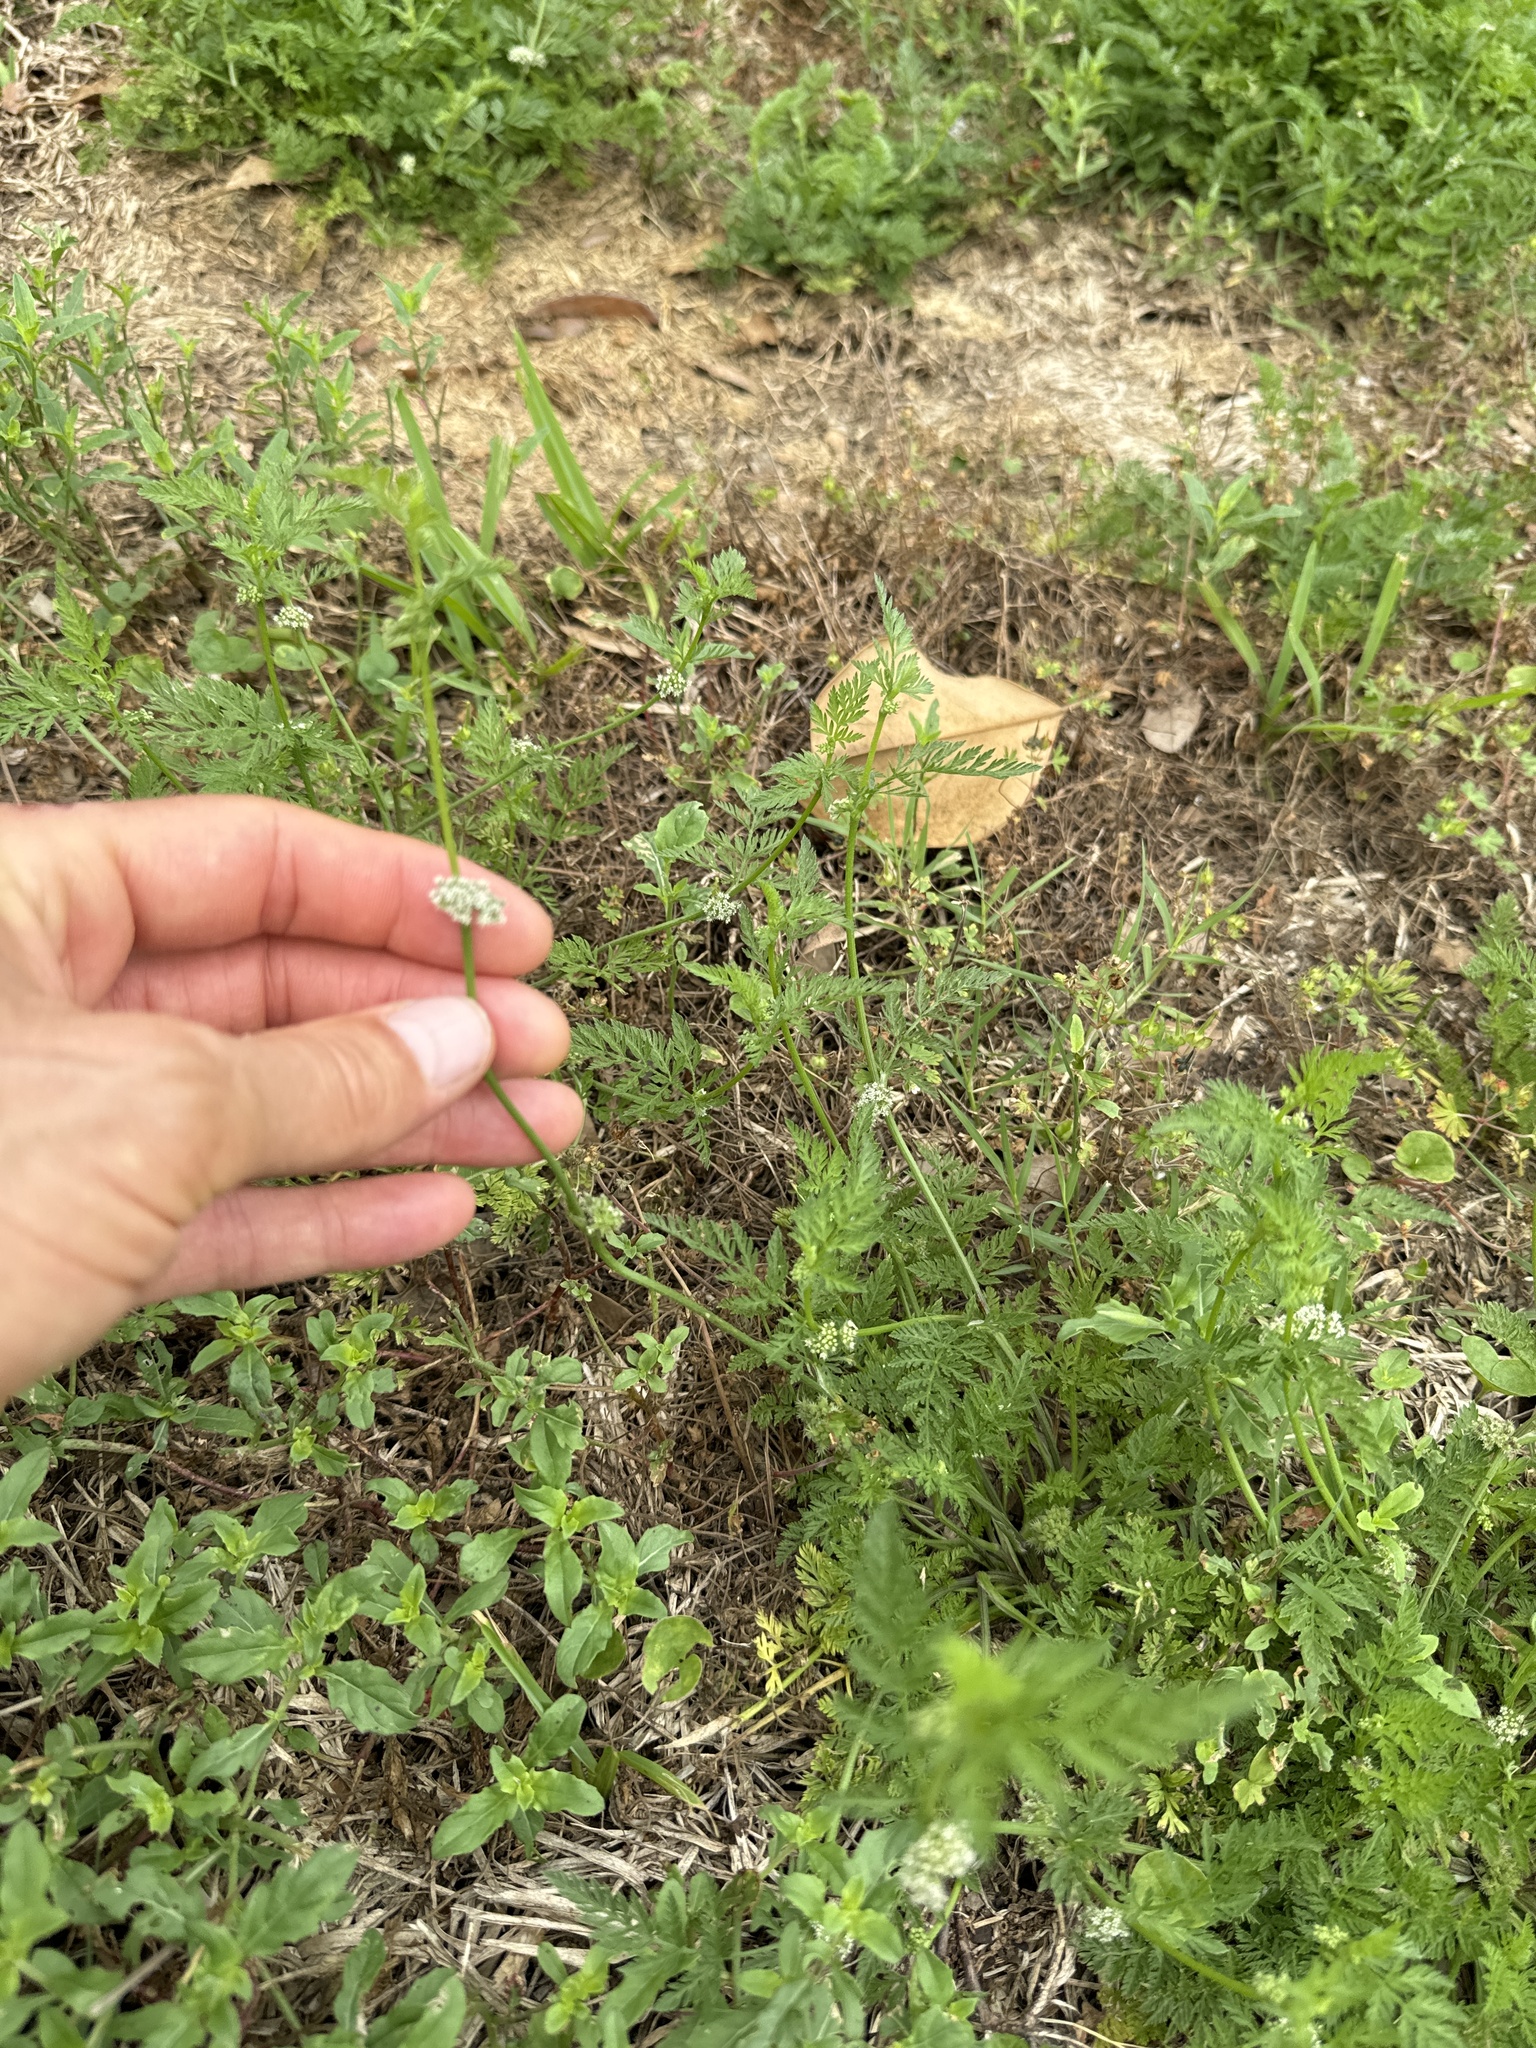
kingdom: Plantae
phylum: Tracheophyta
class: Magnoliopsida
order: Apiales
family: Apiaceae
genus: Torilis
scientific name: Torilis nodosa
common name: Knotted hedge-parsley
